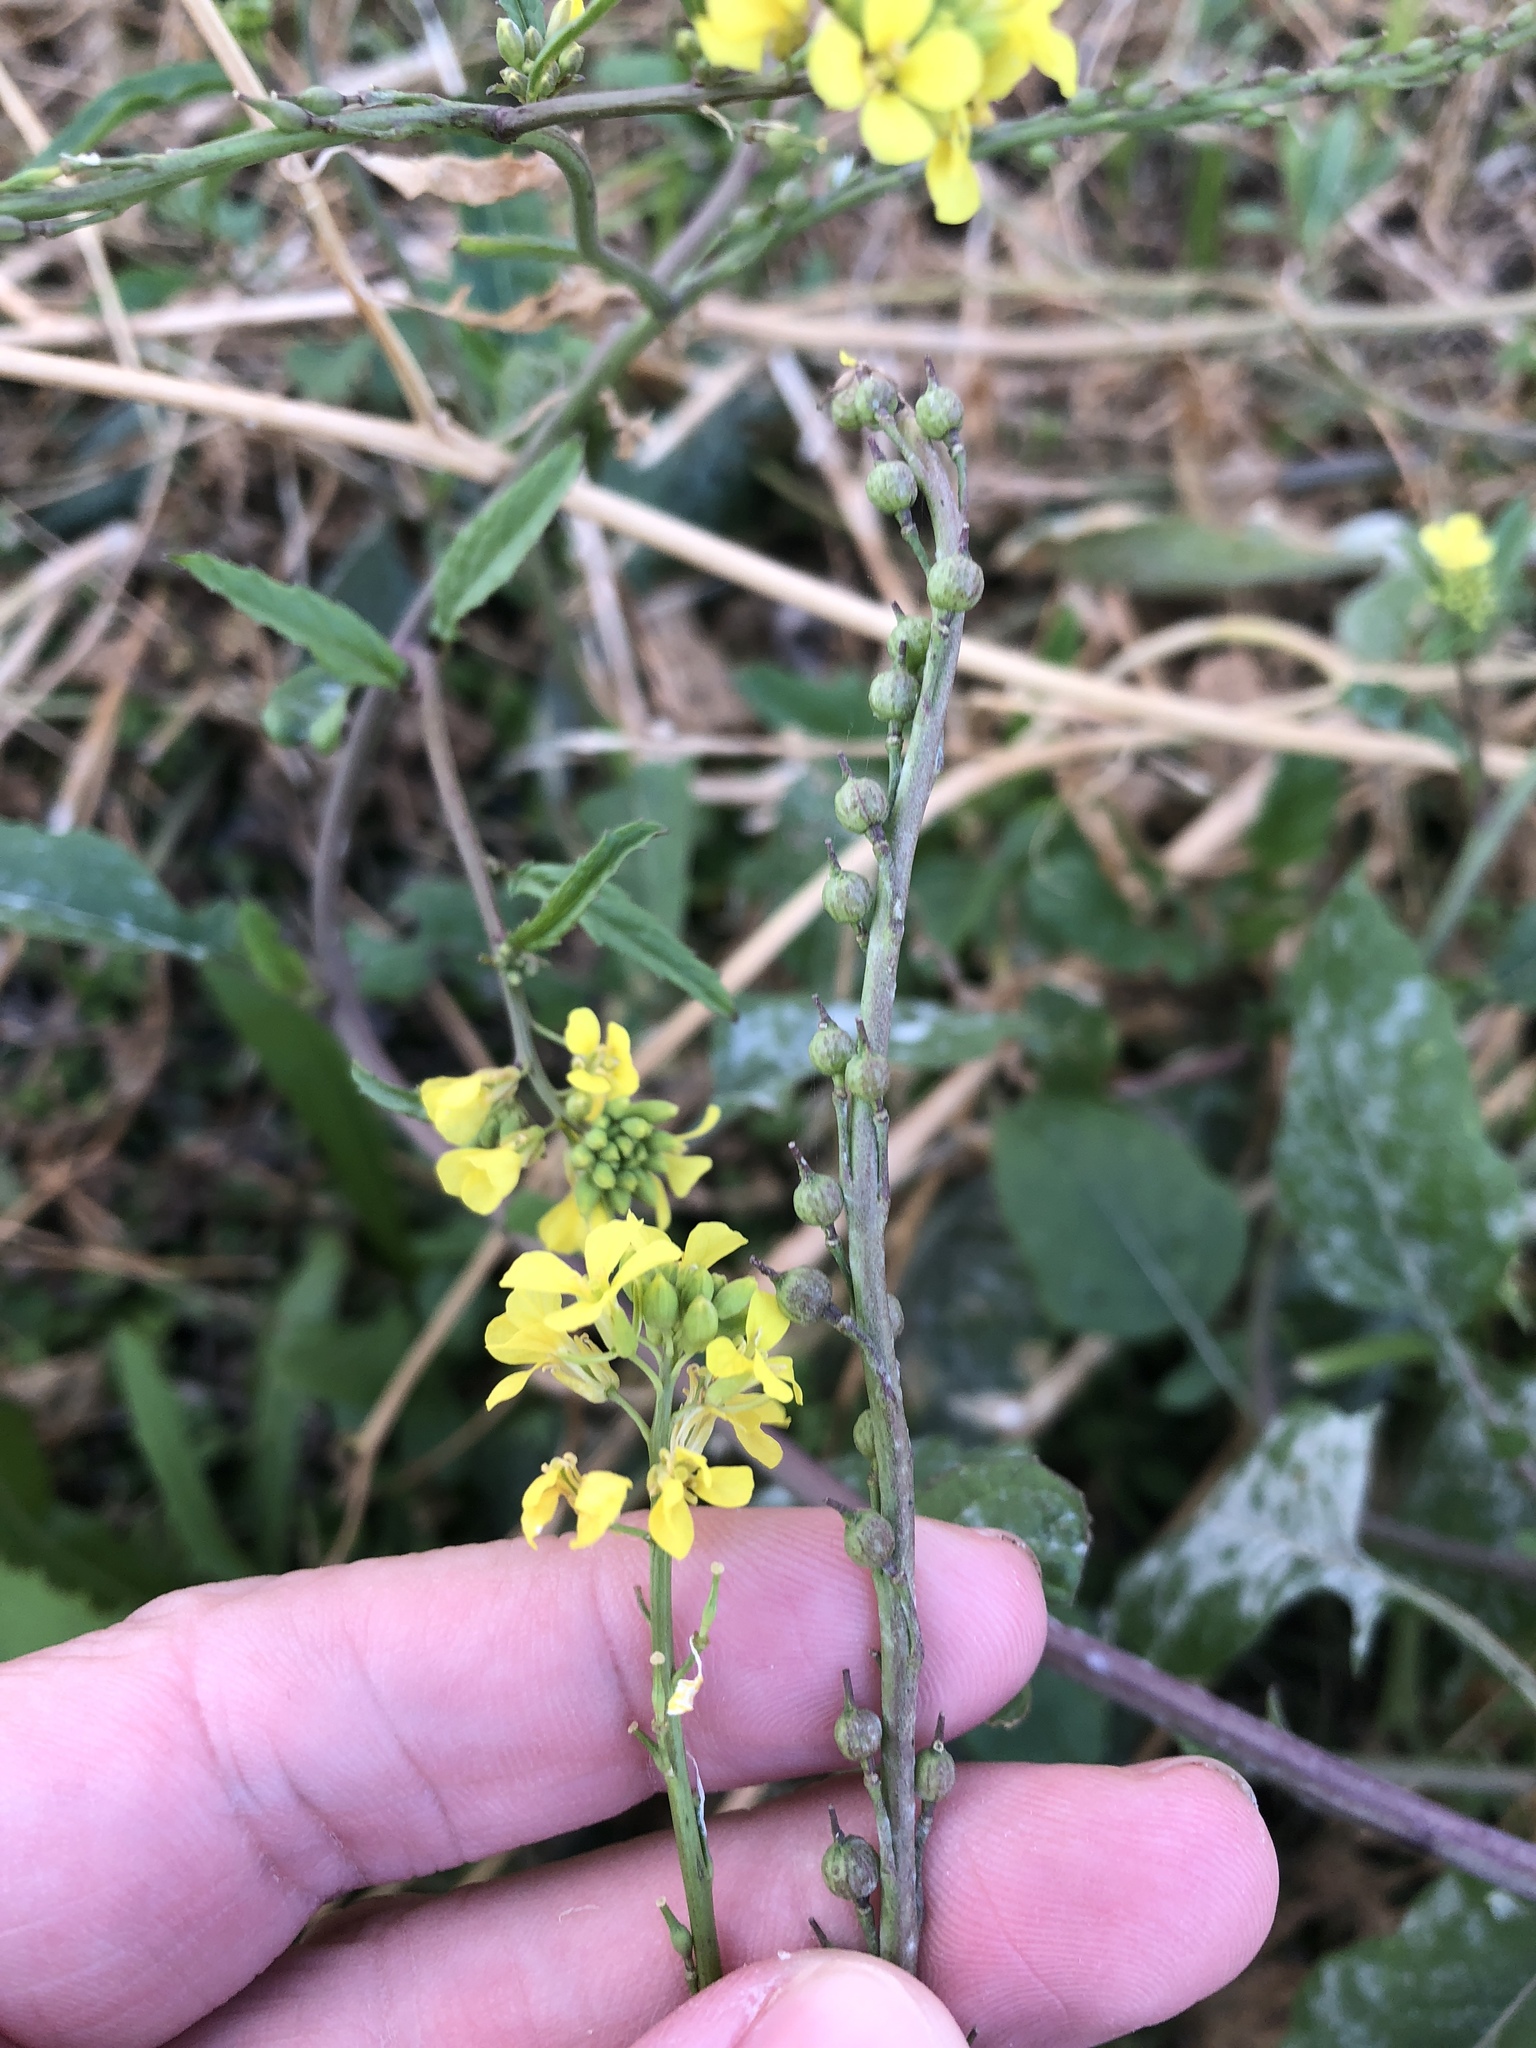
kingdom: Plantae
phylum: Tracheophyta
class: Magnoliopsida
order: Brassicales
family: Brassicaceae
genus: Rapistrum
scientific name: Rapistrum rugosum
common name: Annual bastardcabbage
